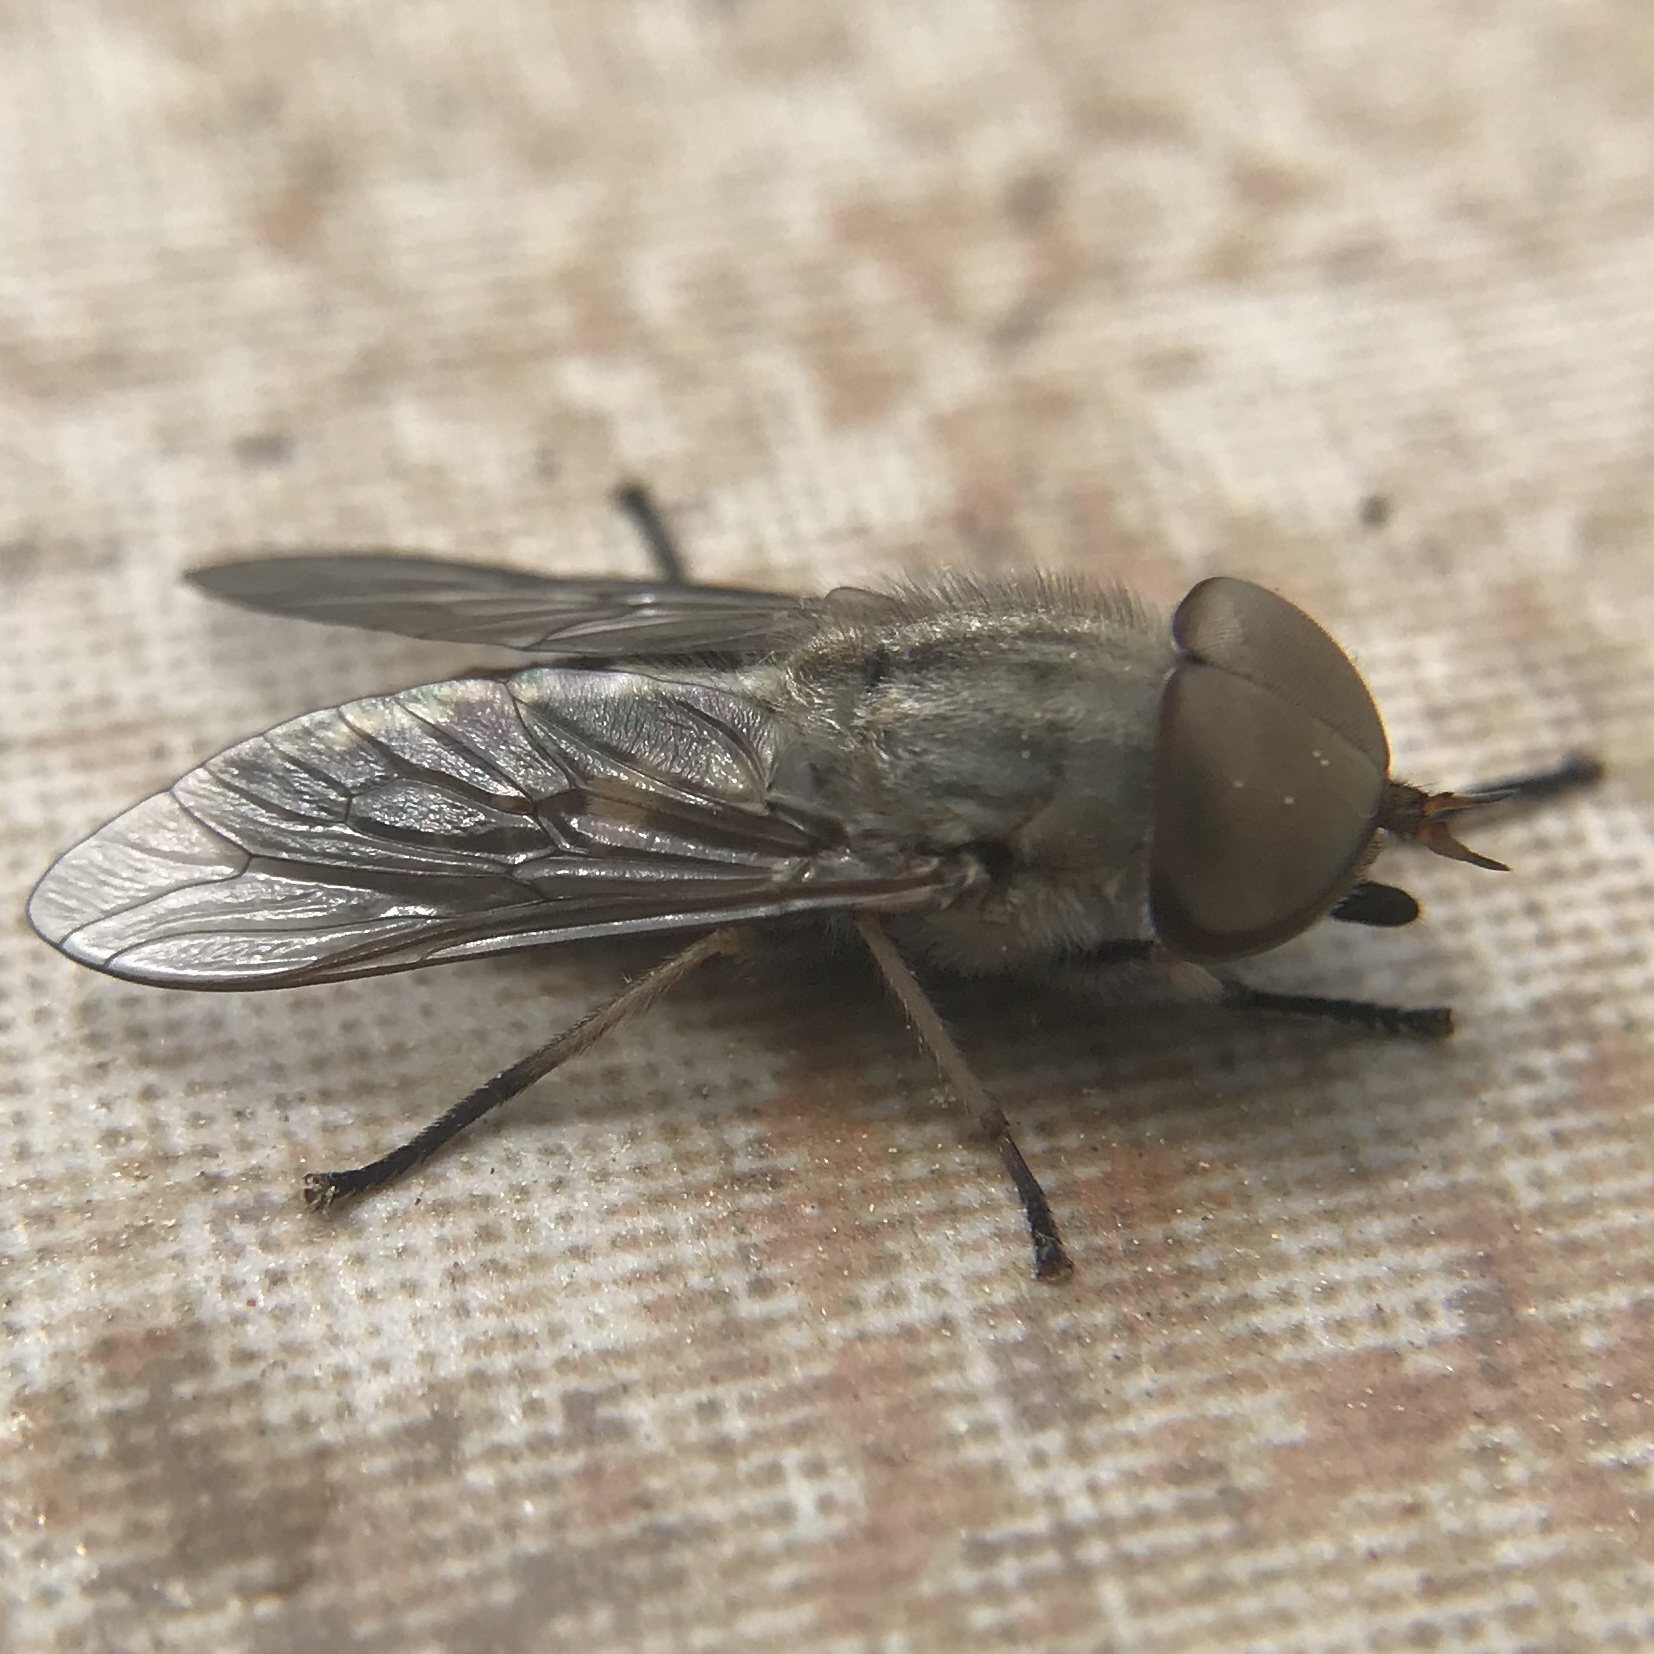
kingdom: Animalia
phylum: Arthropoda
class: Insecta
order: Diptera
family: Tabanidae
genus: Tabanus
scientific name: Tabanus
